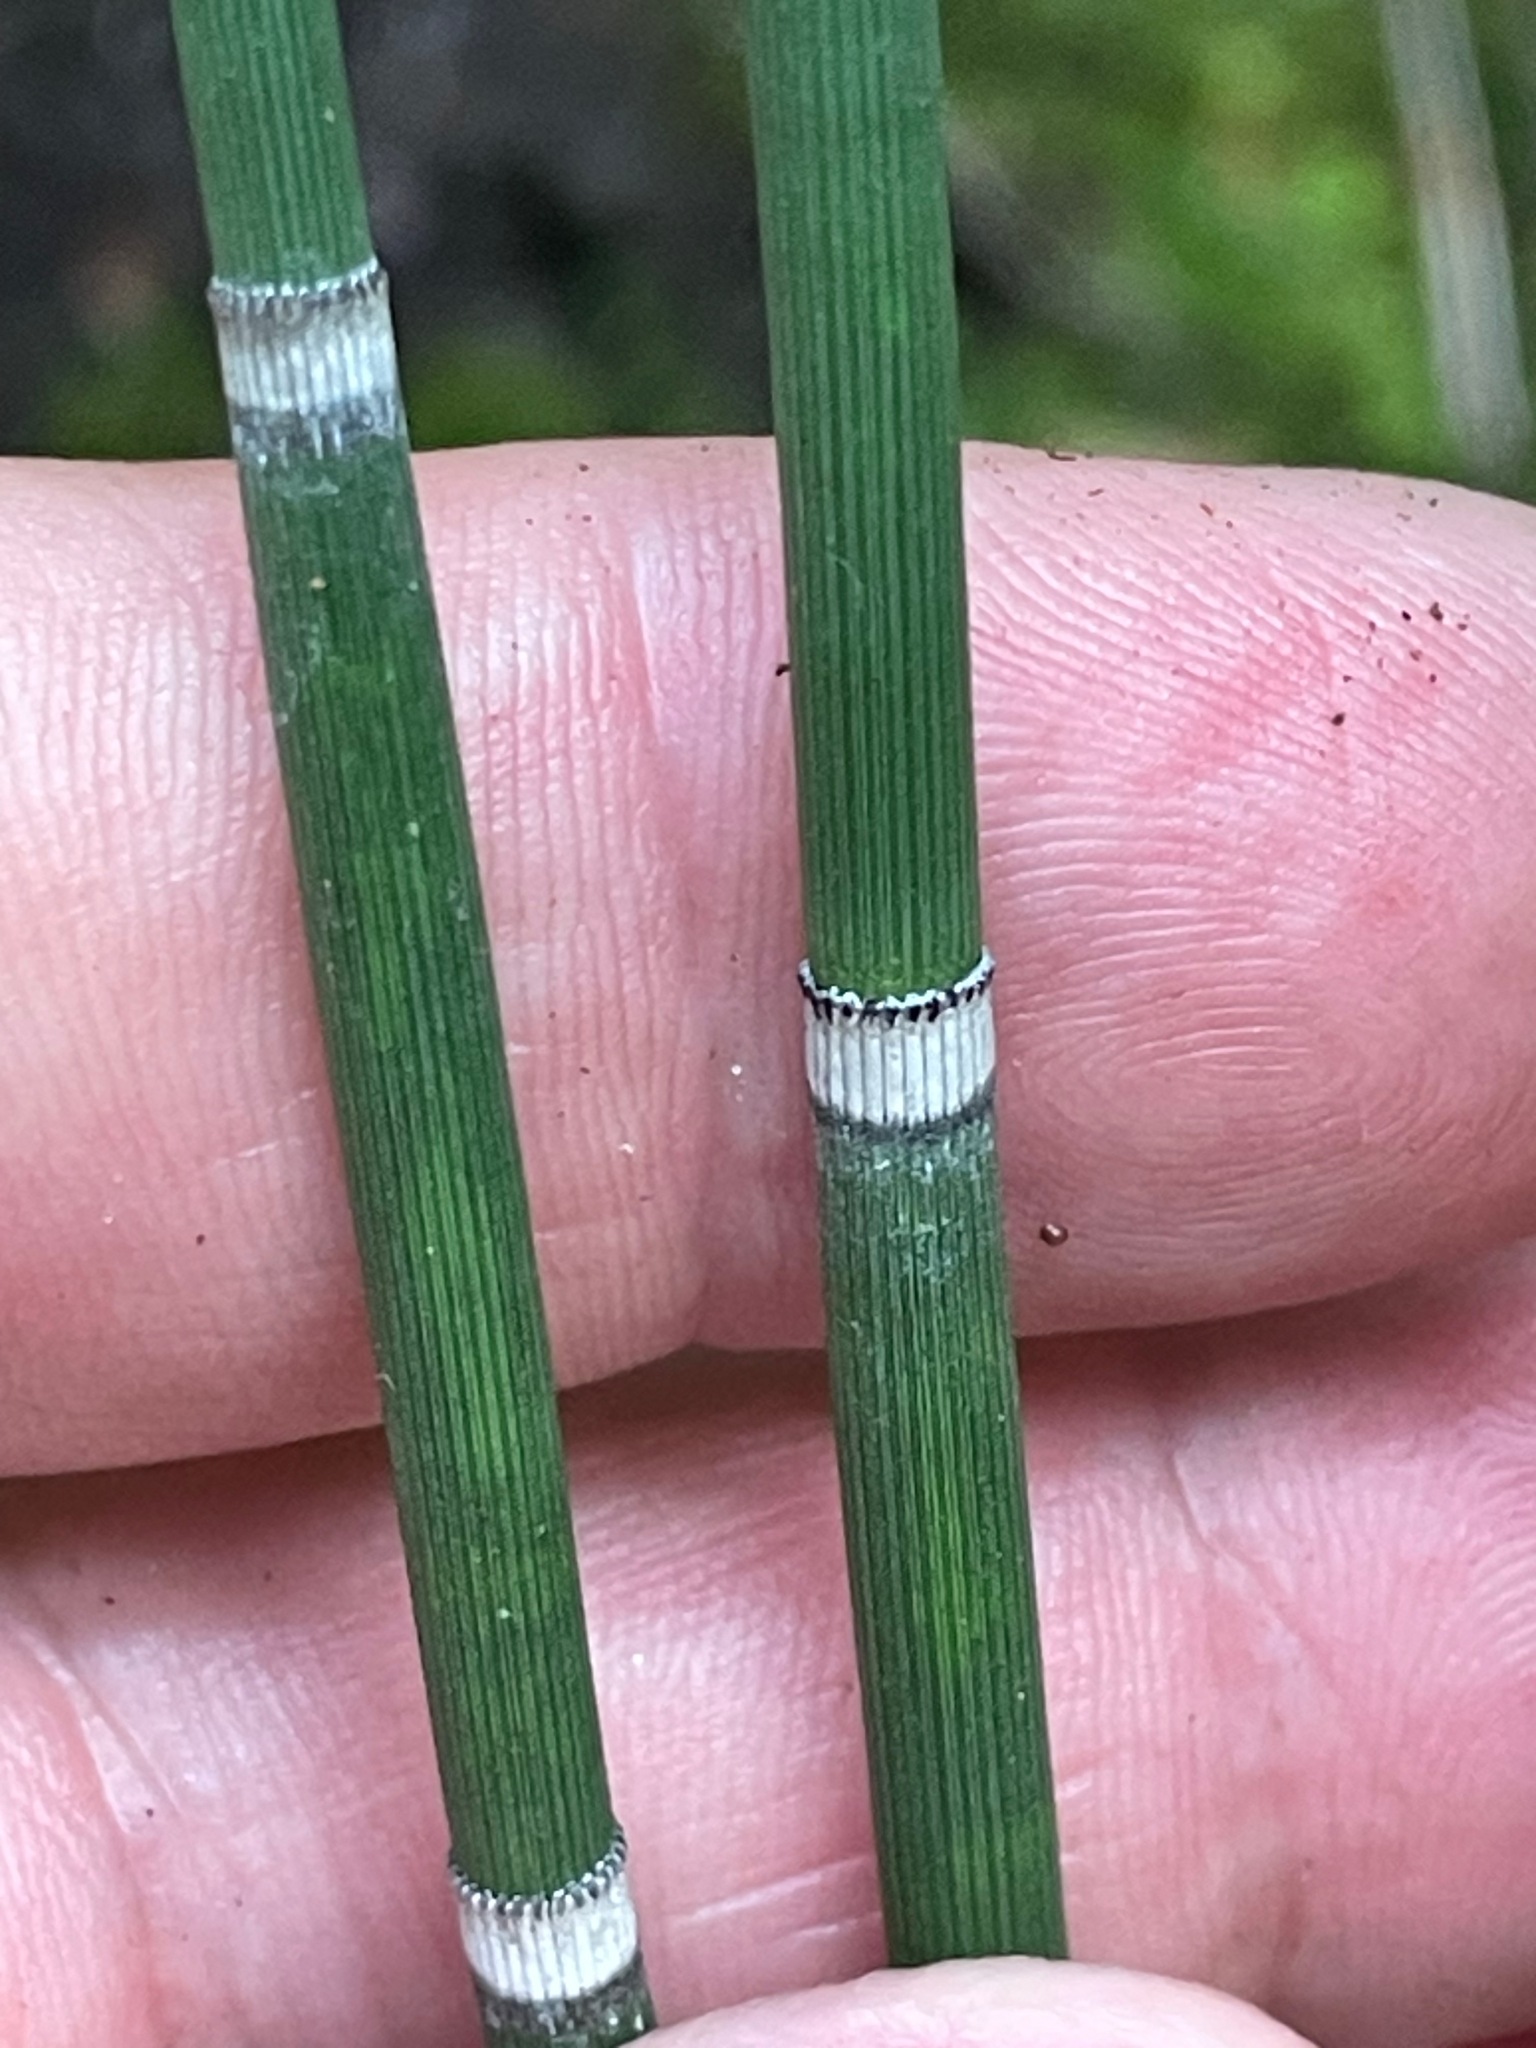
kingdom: Plantae
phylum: Tracheophyta
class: Polypodiopsida
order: Equisetales
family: Equisetaceae
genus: Equisetum
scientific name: Equisetum hyemale
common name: Rough horsetail
